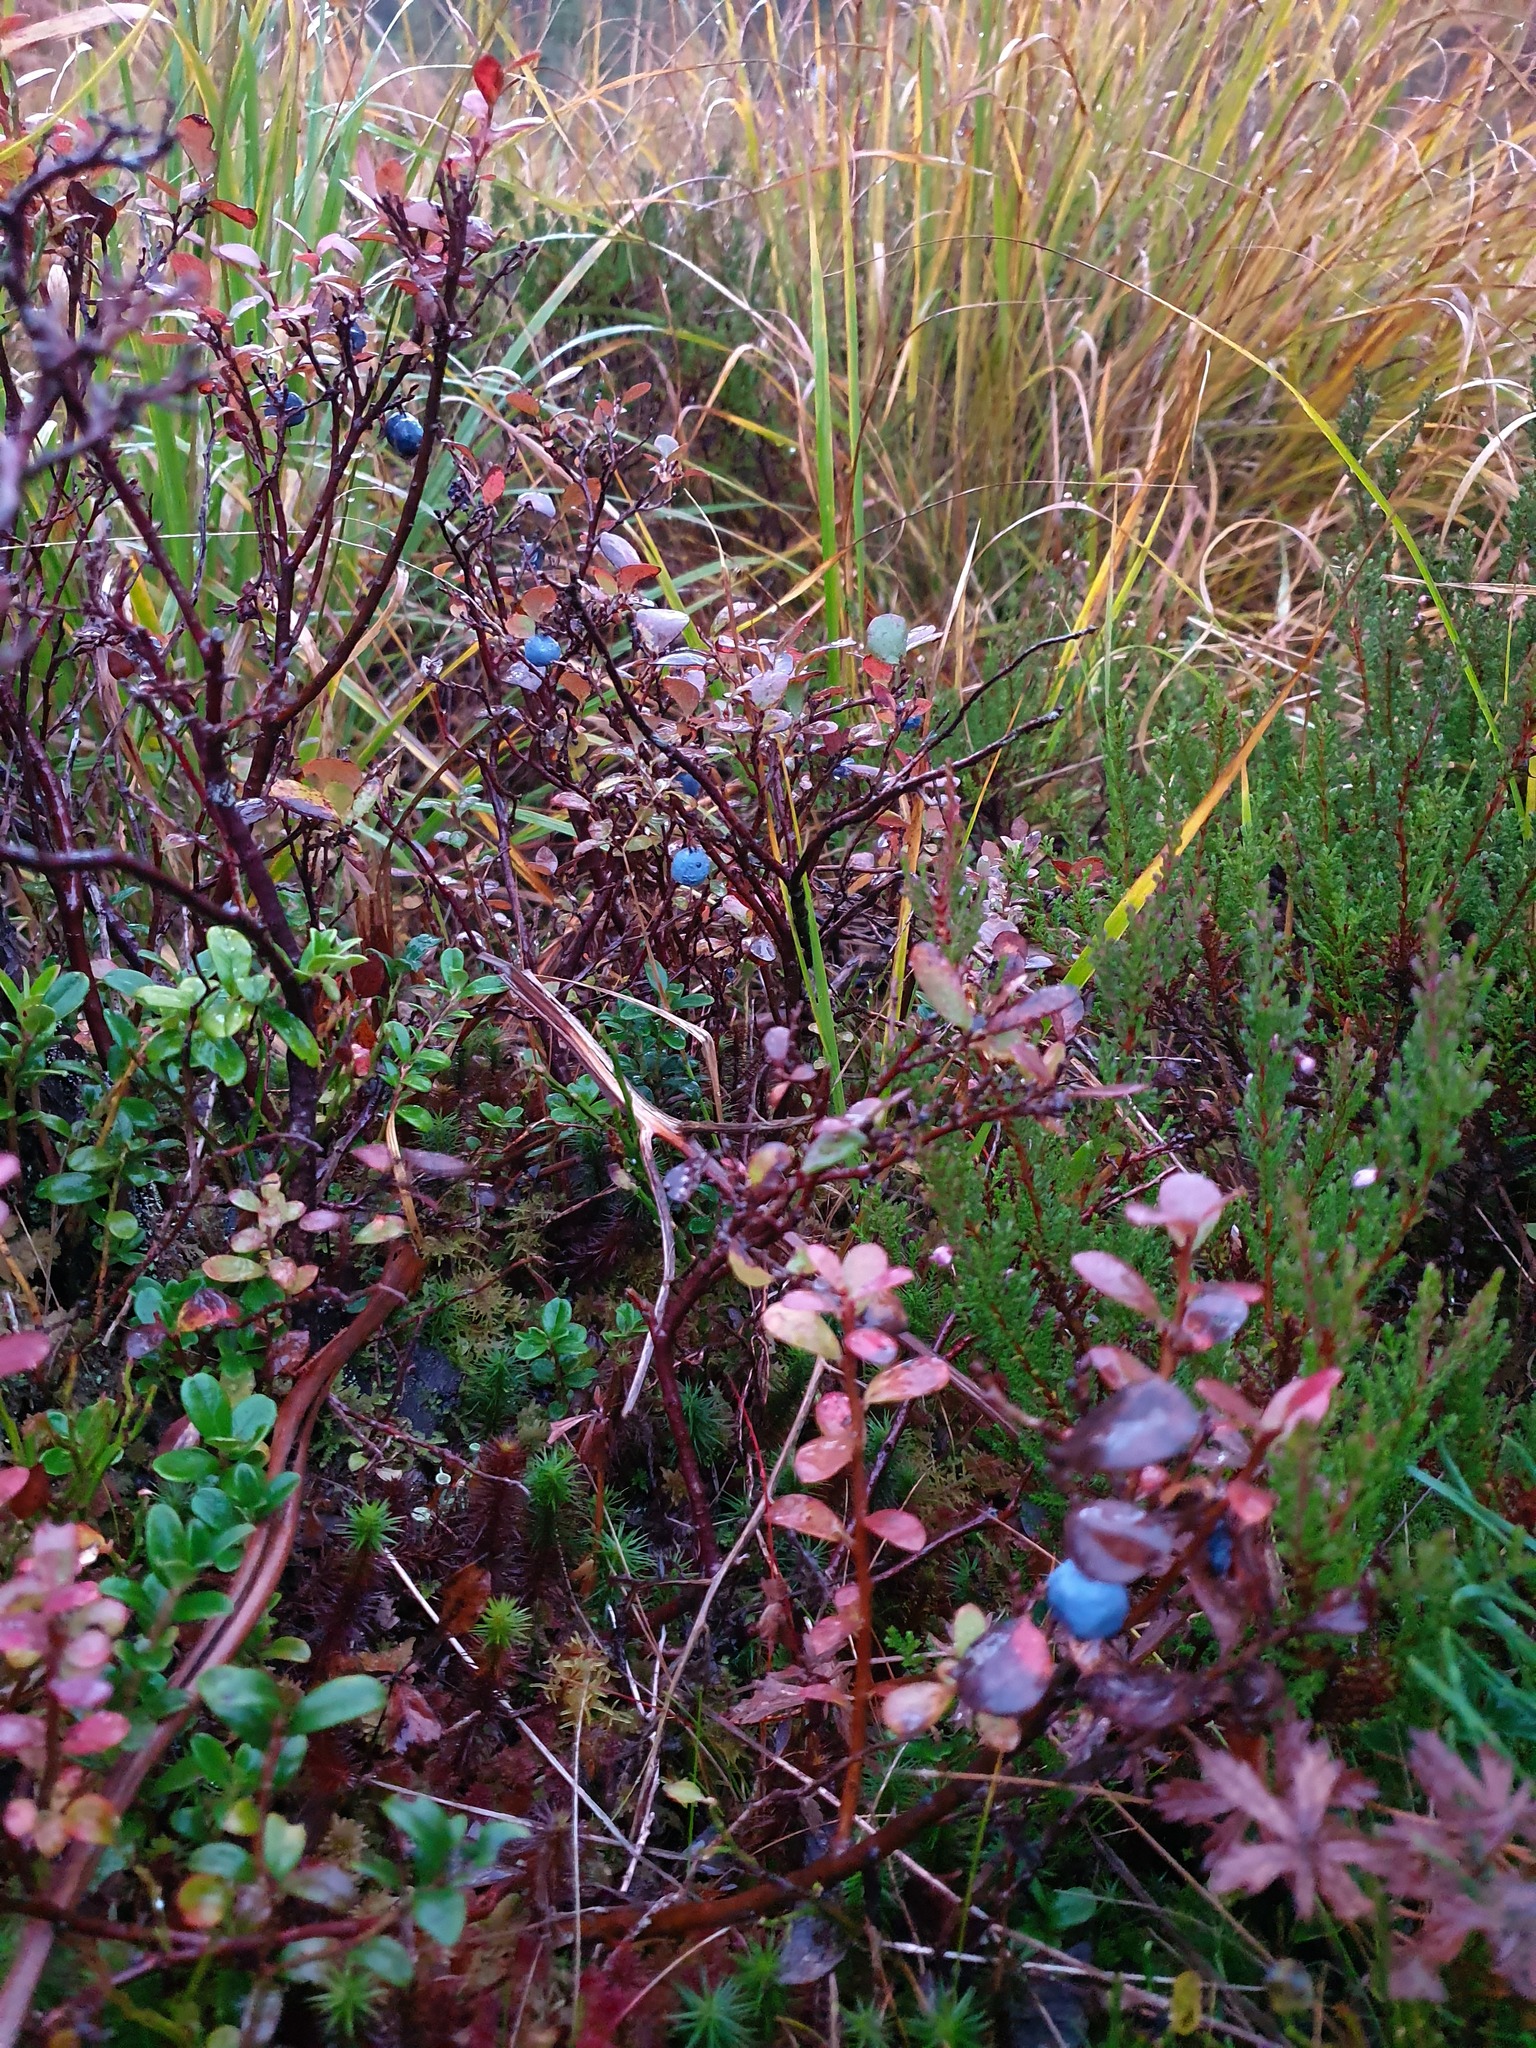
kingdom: Plantae
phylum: Tracheophyta
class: Magnoliopsida
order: Ericales
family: Ericaceae
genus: Vaccinium
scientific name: Vaccinium uliginosum
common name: Bog bilberry
